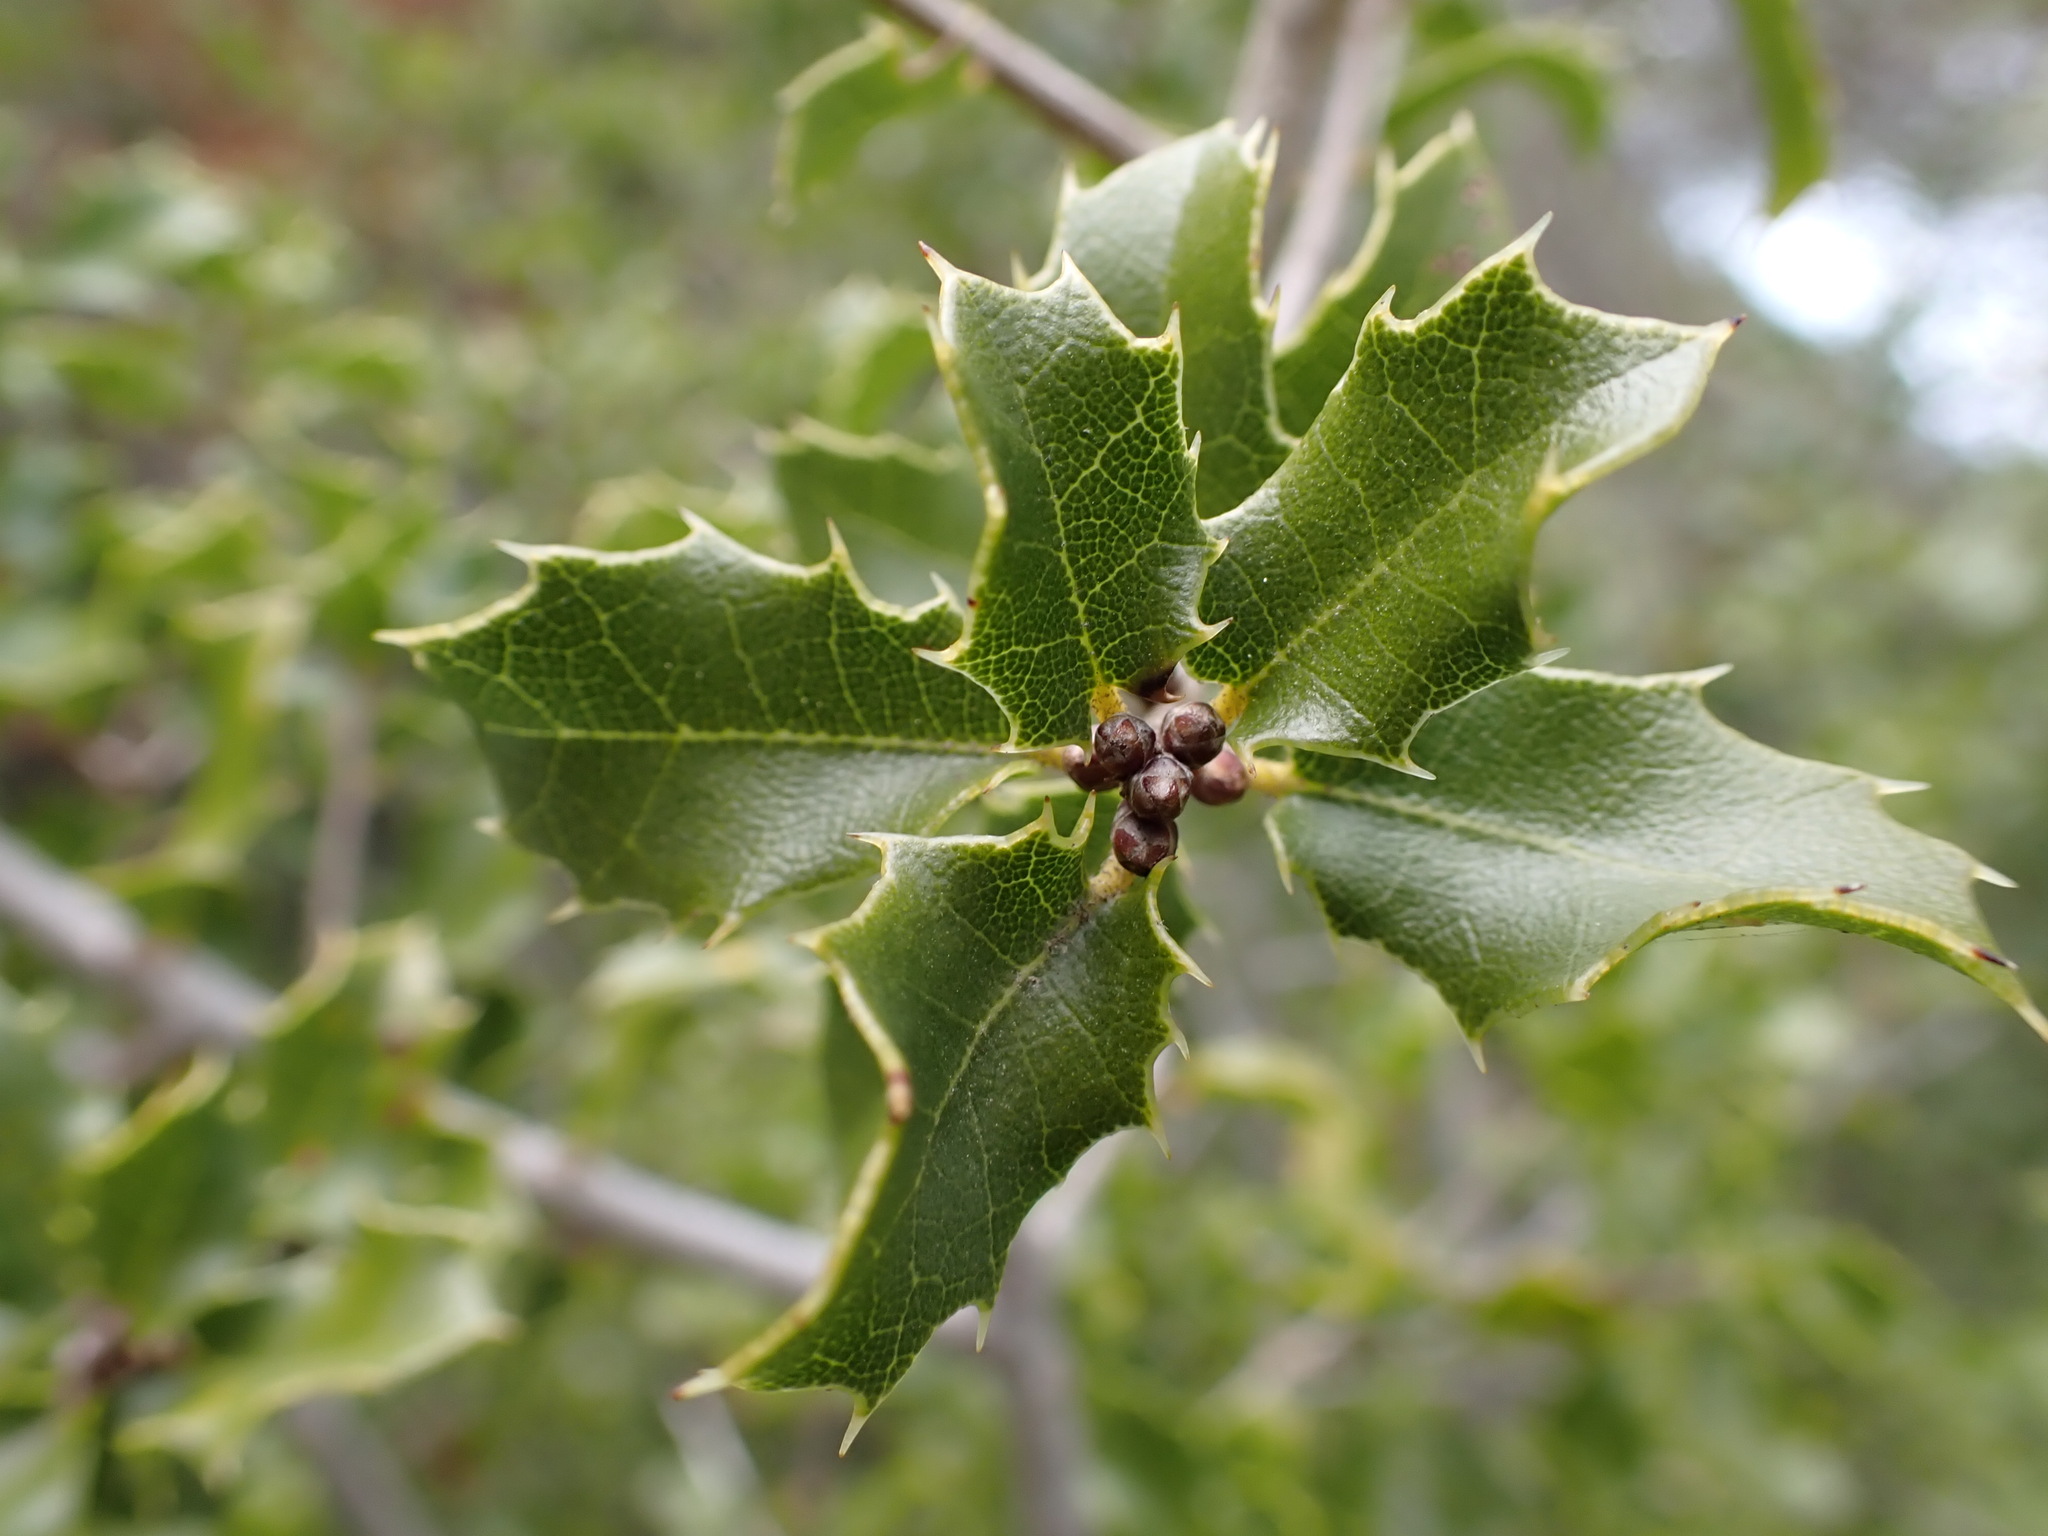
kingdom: Plantae
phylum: Tracheophyta
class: Magnoliopsida
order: Fagales
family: Fagaceae
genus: Quercus
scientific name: Quercus coccifera
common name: Kermes oak
